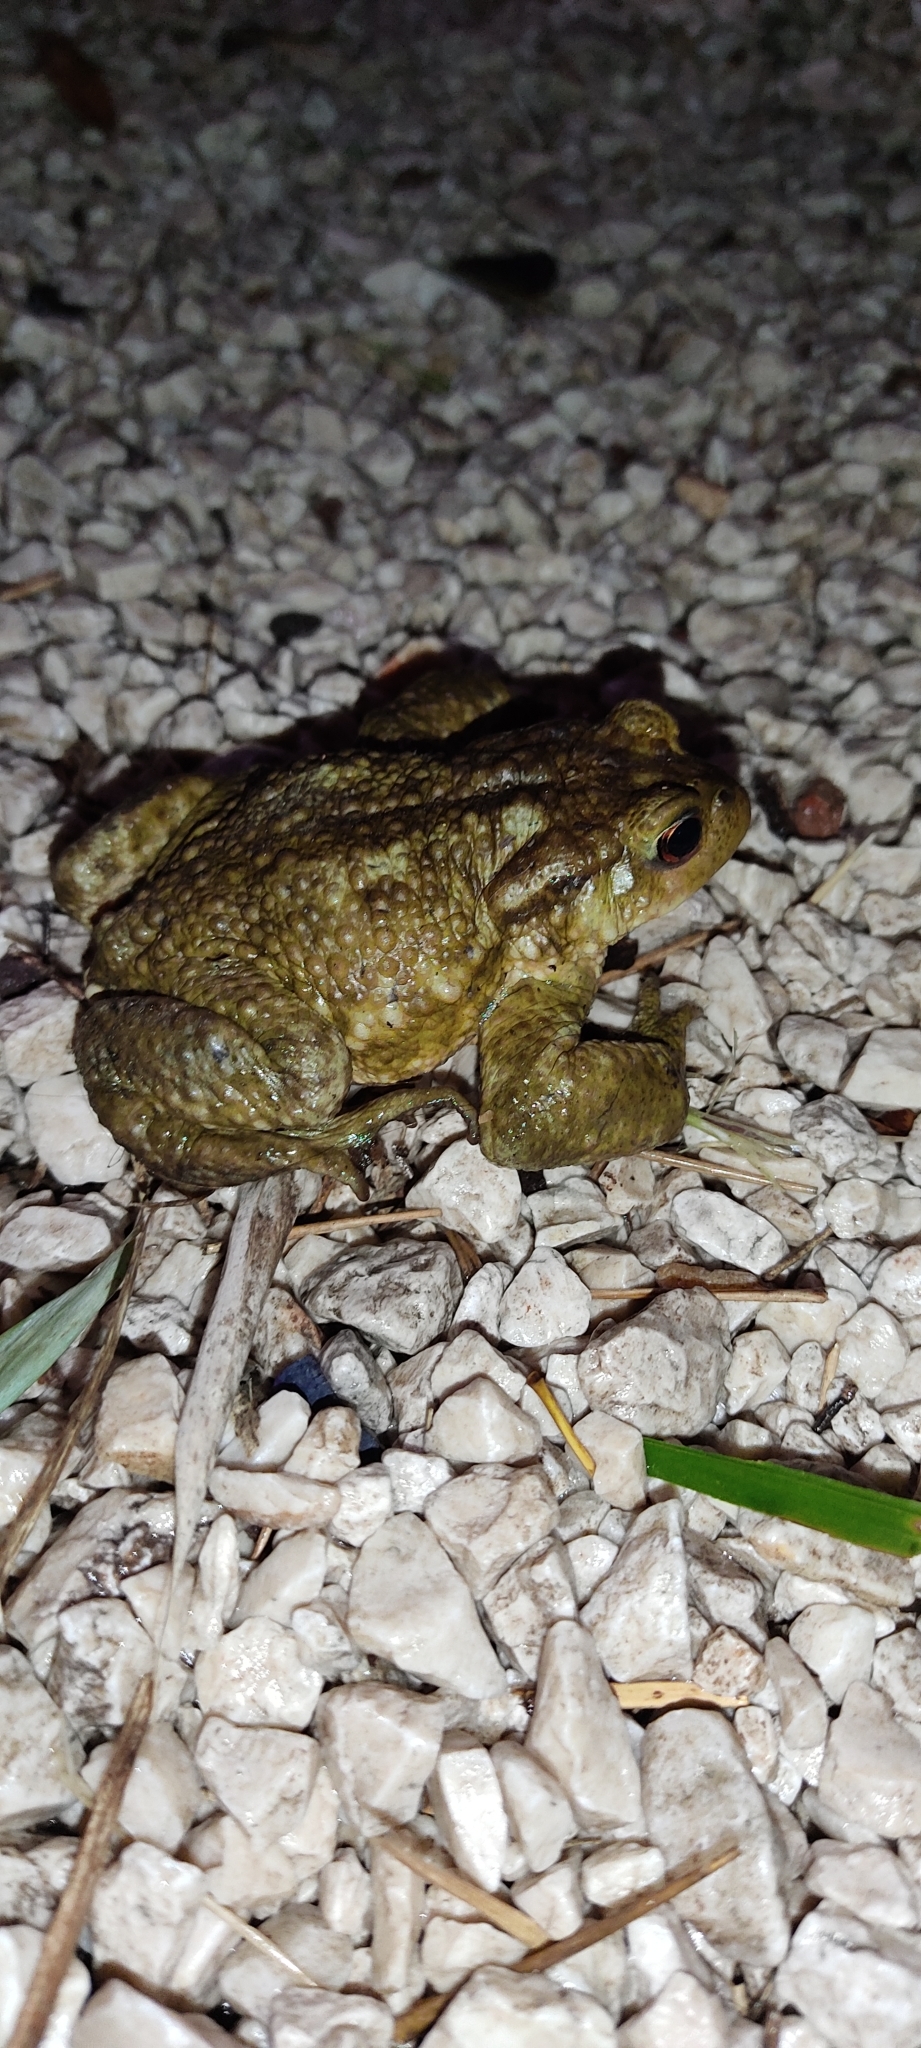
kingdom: Animalia
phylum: Chordata
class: Amphibia
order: Anura
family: Bufonidae
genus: Bufo
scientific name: Bufo spinosus
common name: Western common toad
